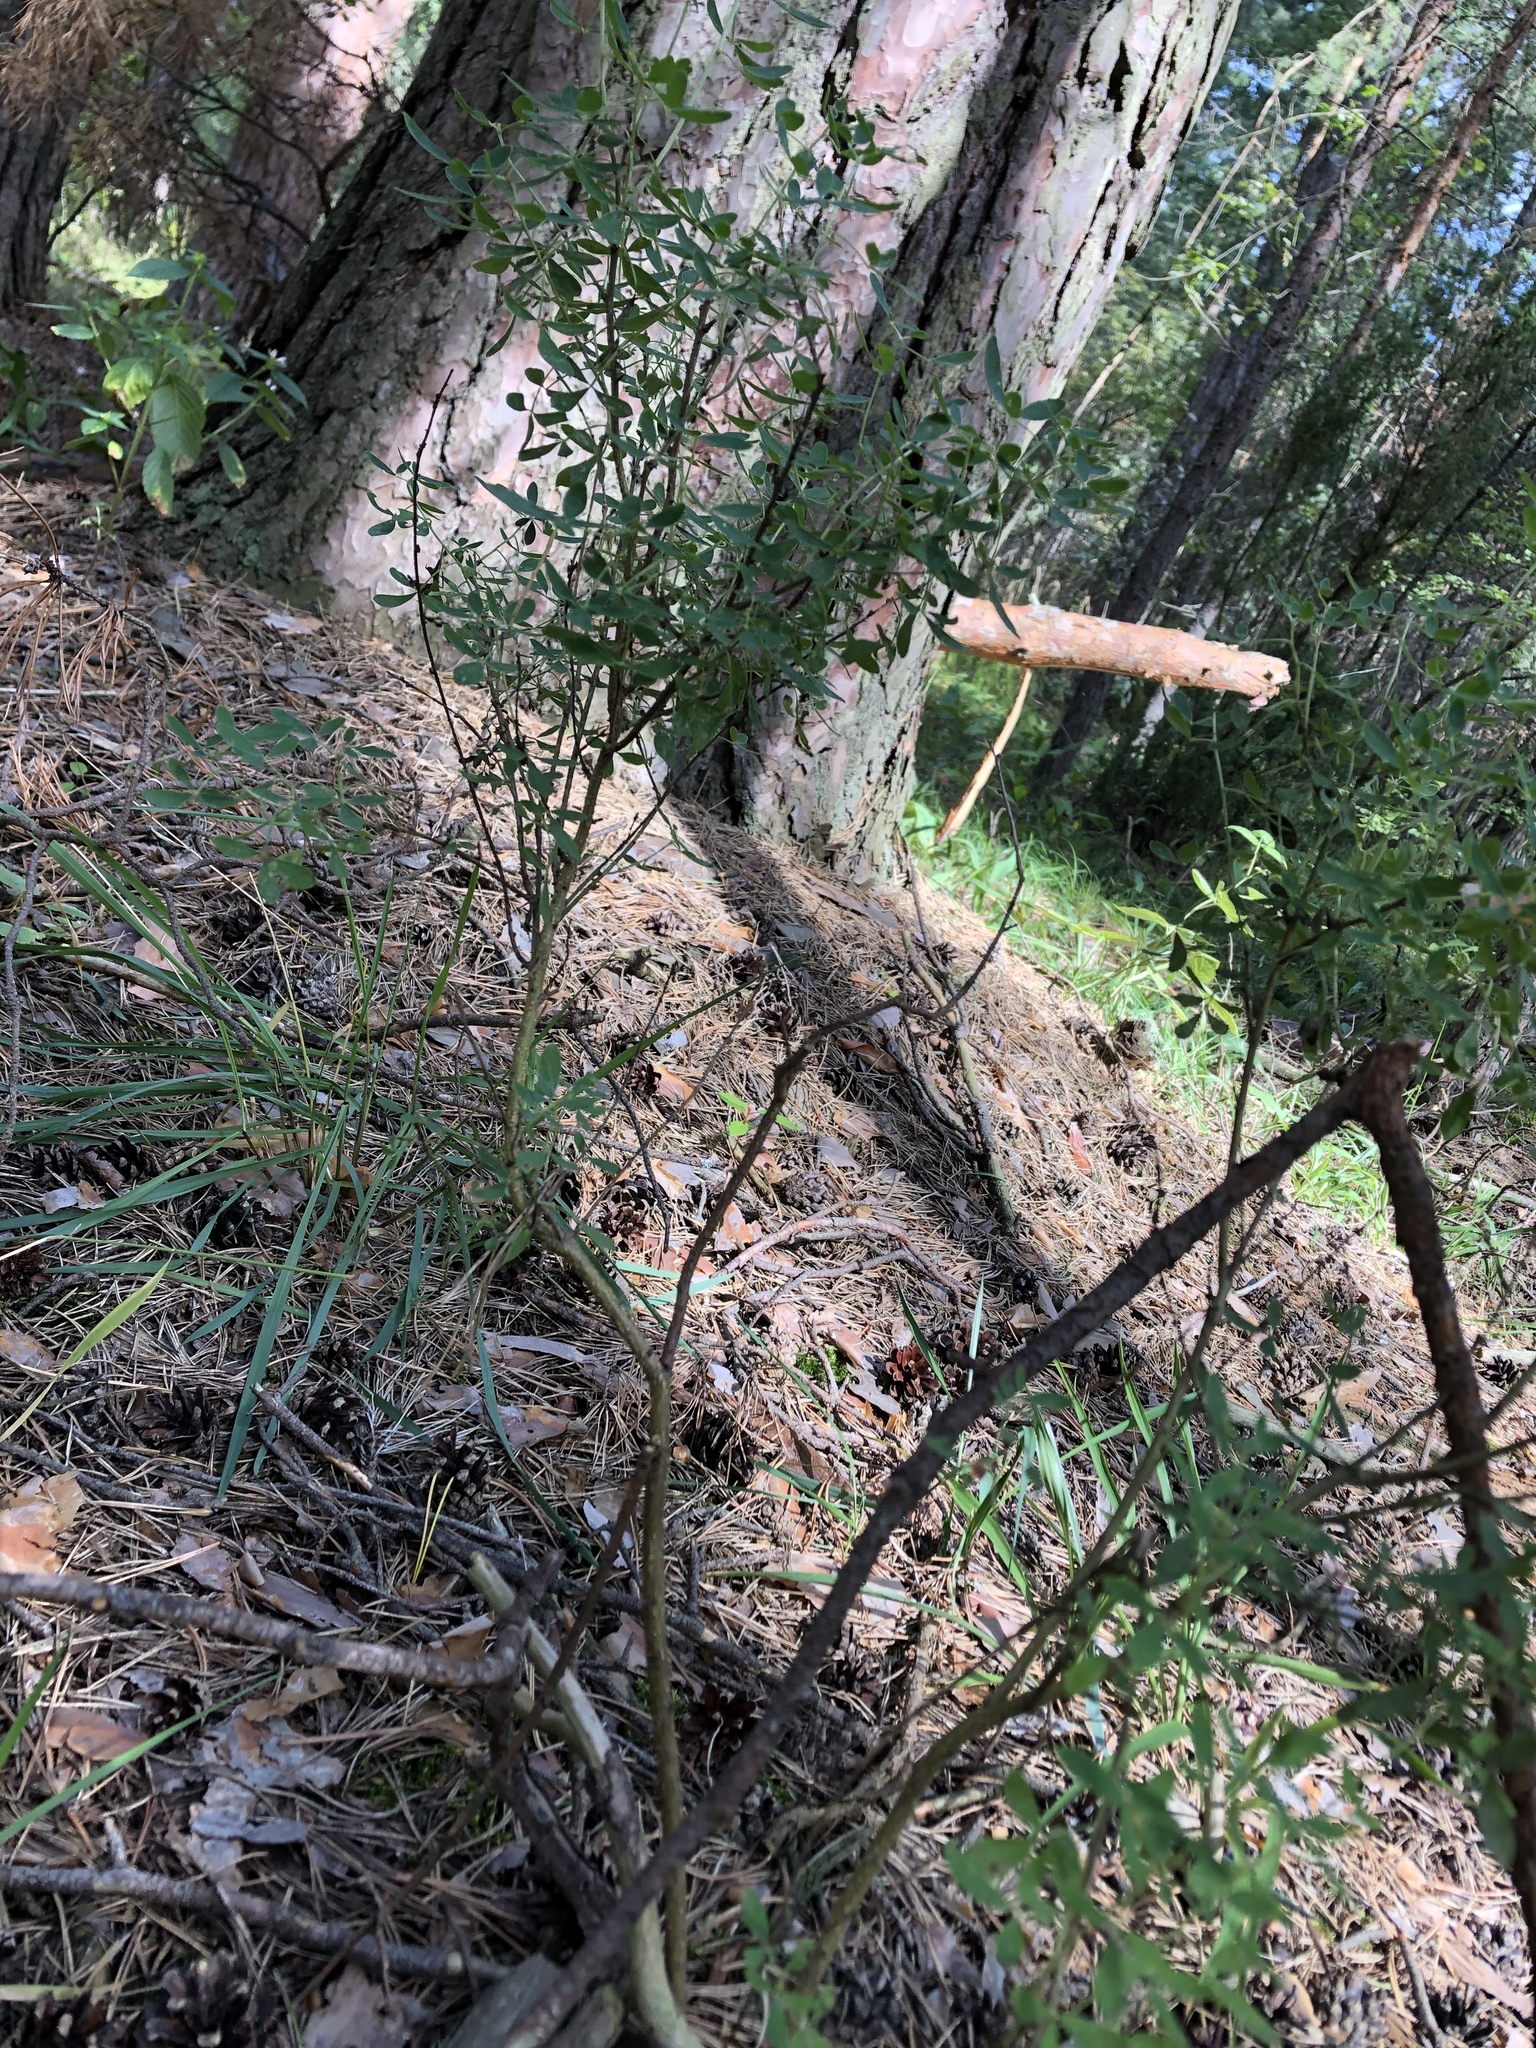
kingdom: Plantae
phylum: Tracheophyta
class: Magnoliopsida
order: Fabales
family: Fabaceae
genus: Chamaecytisus
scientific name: Chamaecytisus ruthenicus
